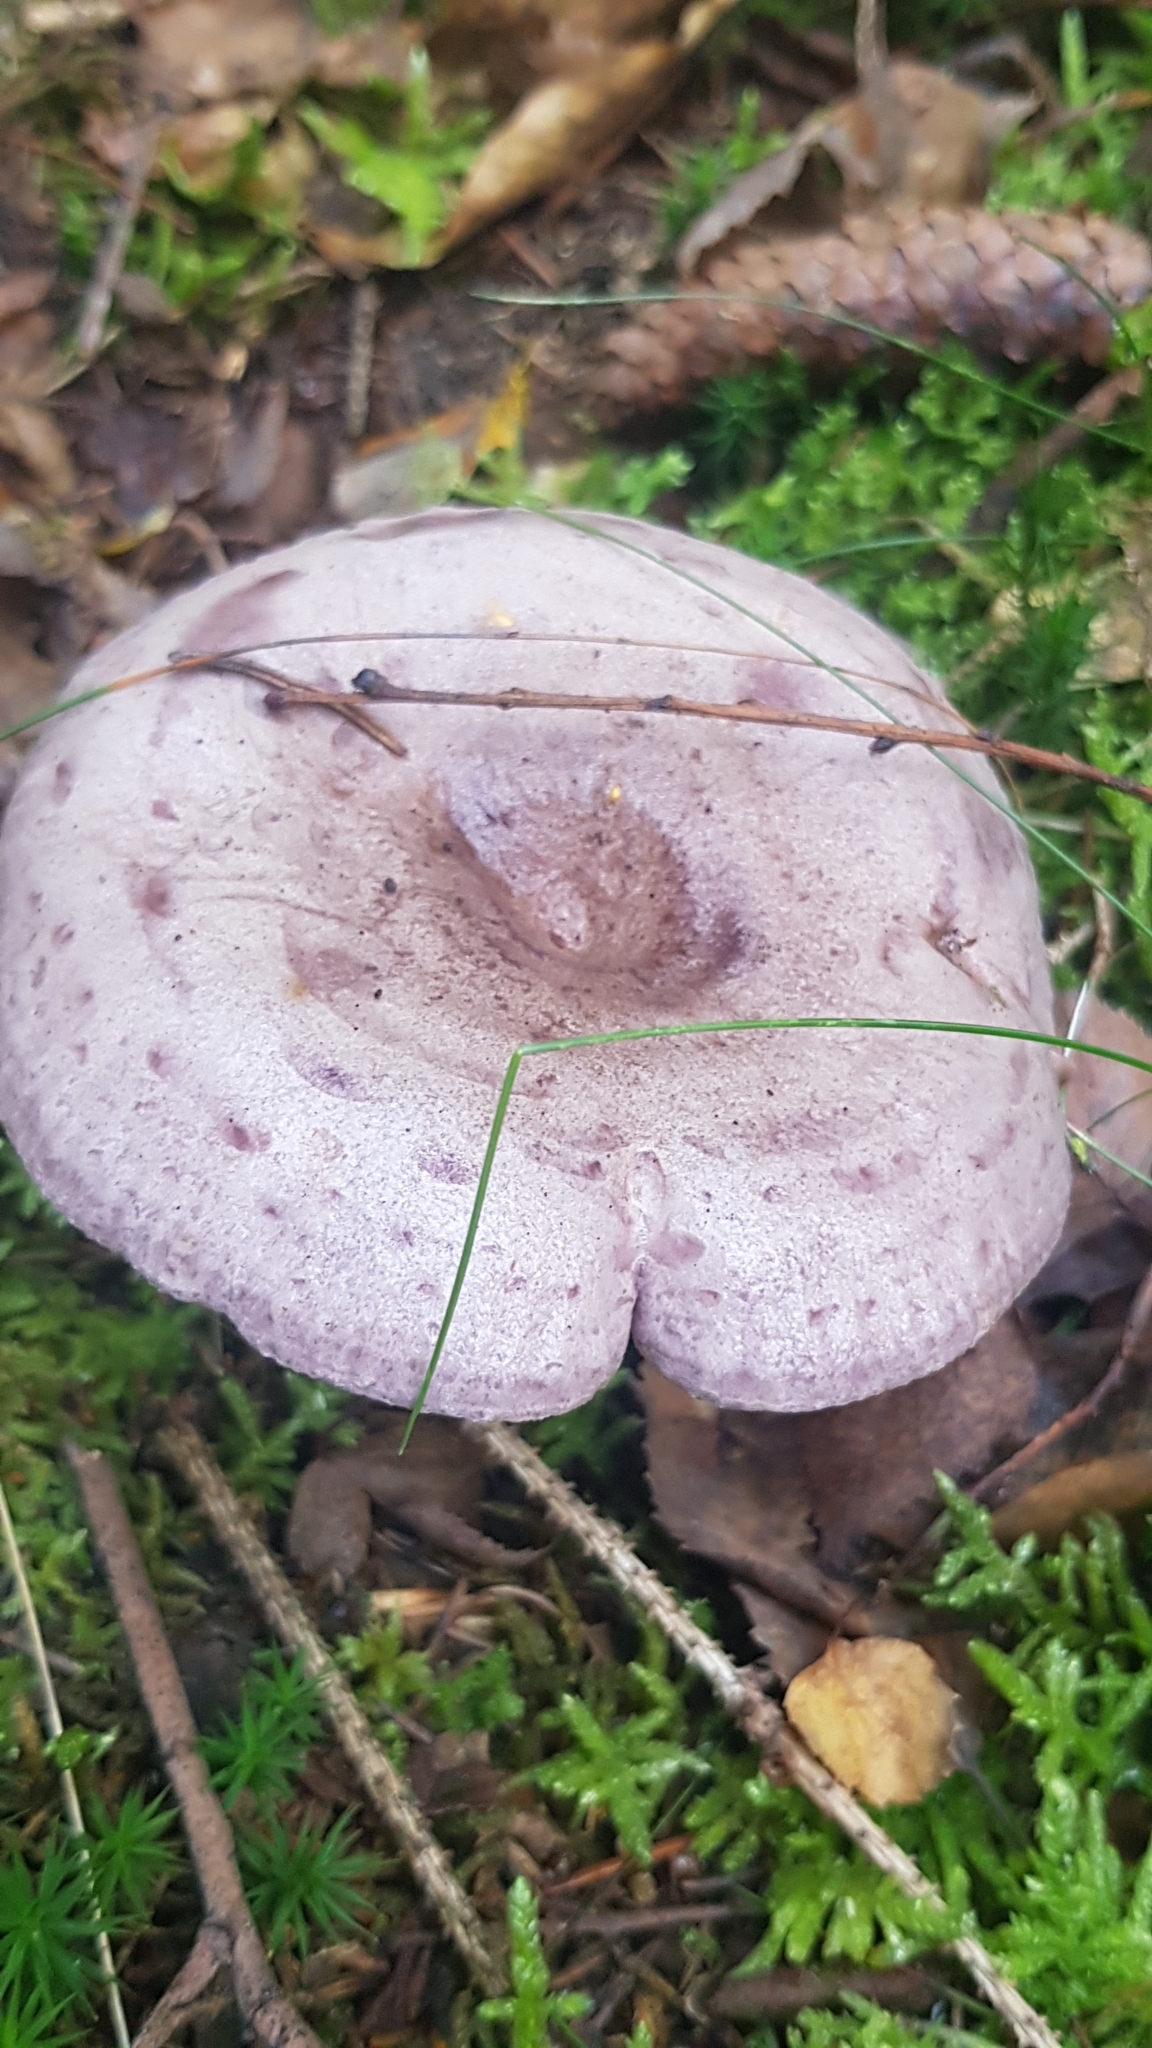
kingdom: Fungi
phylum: Basidiomycota
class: Agaricomycetes
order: Russulales
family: Russulaceae
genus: Lactarius
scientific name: Lactarius glyciosmus
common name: Coconut milkcap
